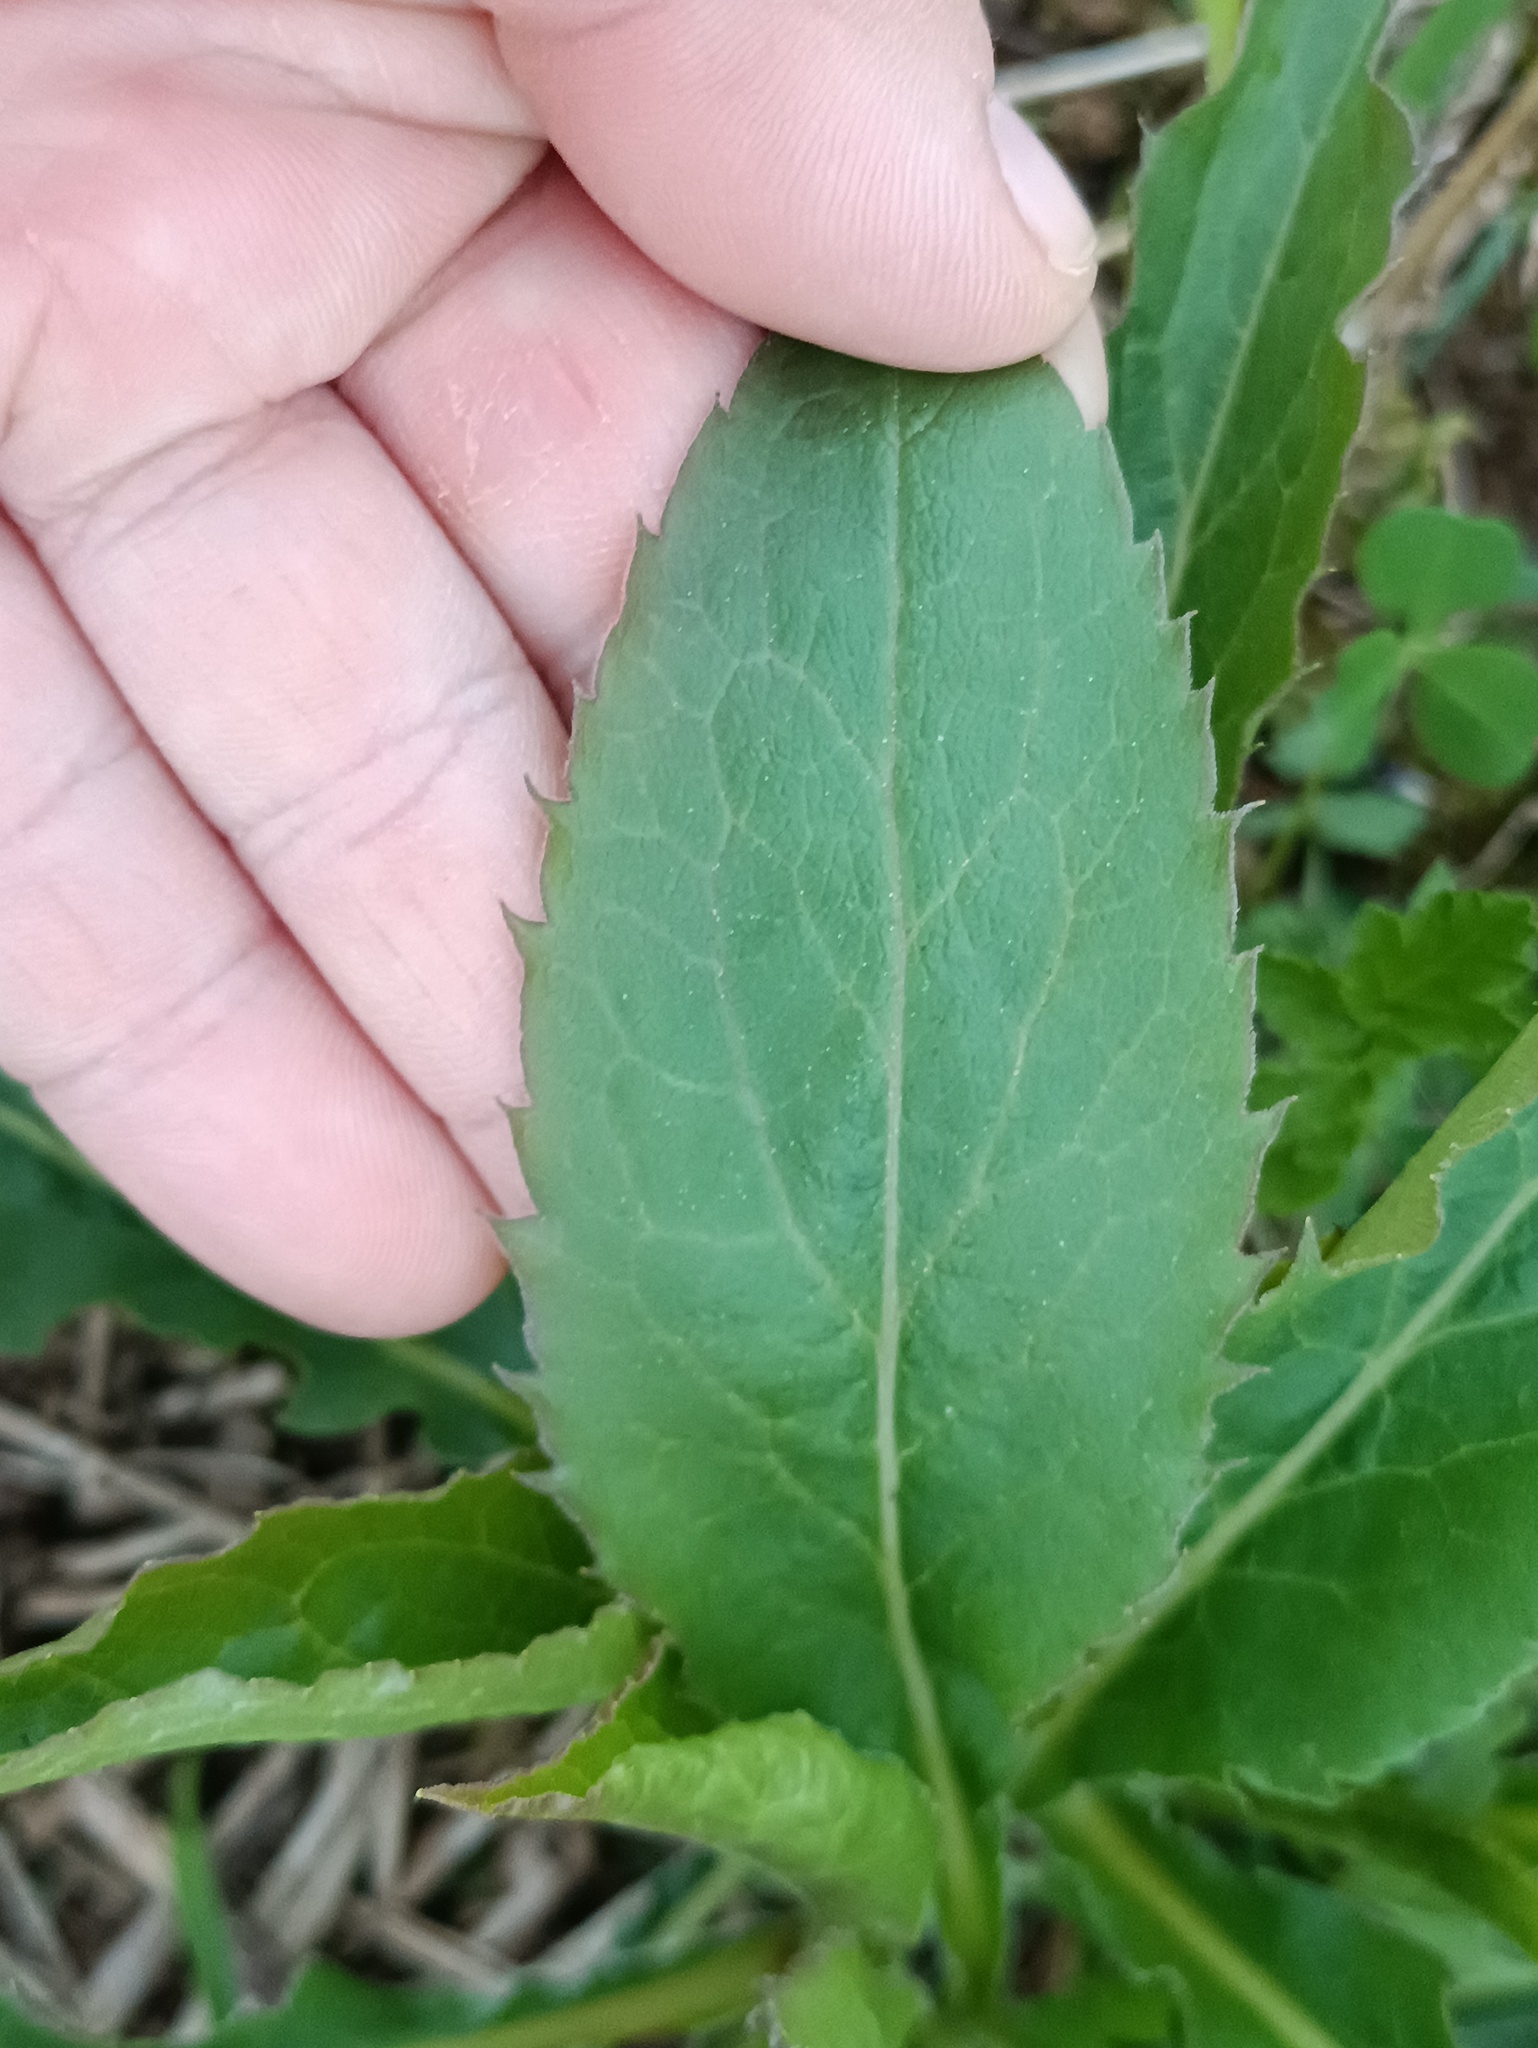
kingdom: Plantae
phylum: Tracheophyta
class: Magnoliopsida
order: Asterales
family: Asteraceae
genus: Solidago
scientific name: Solidago virgaurea
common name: Goldenrod
